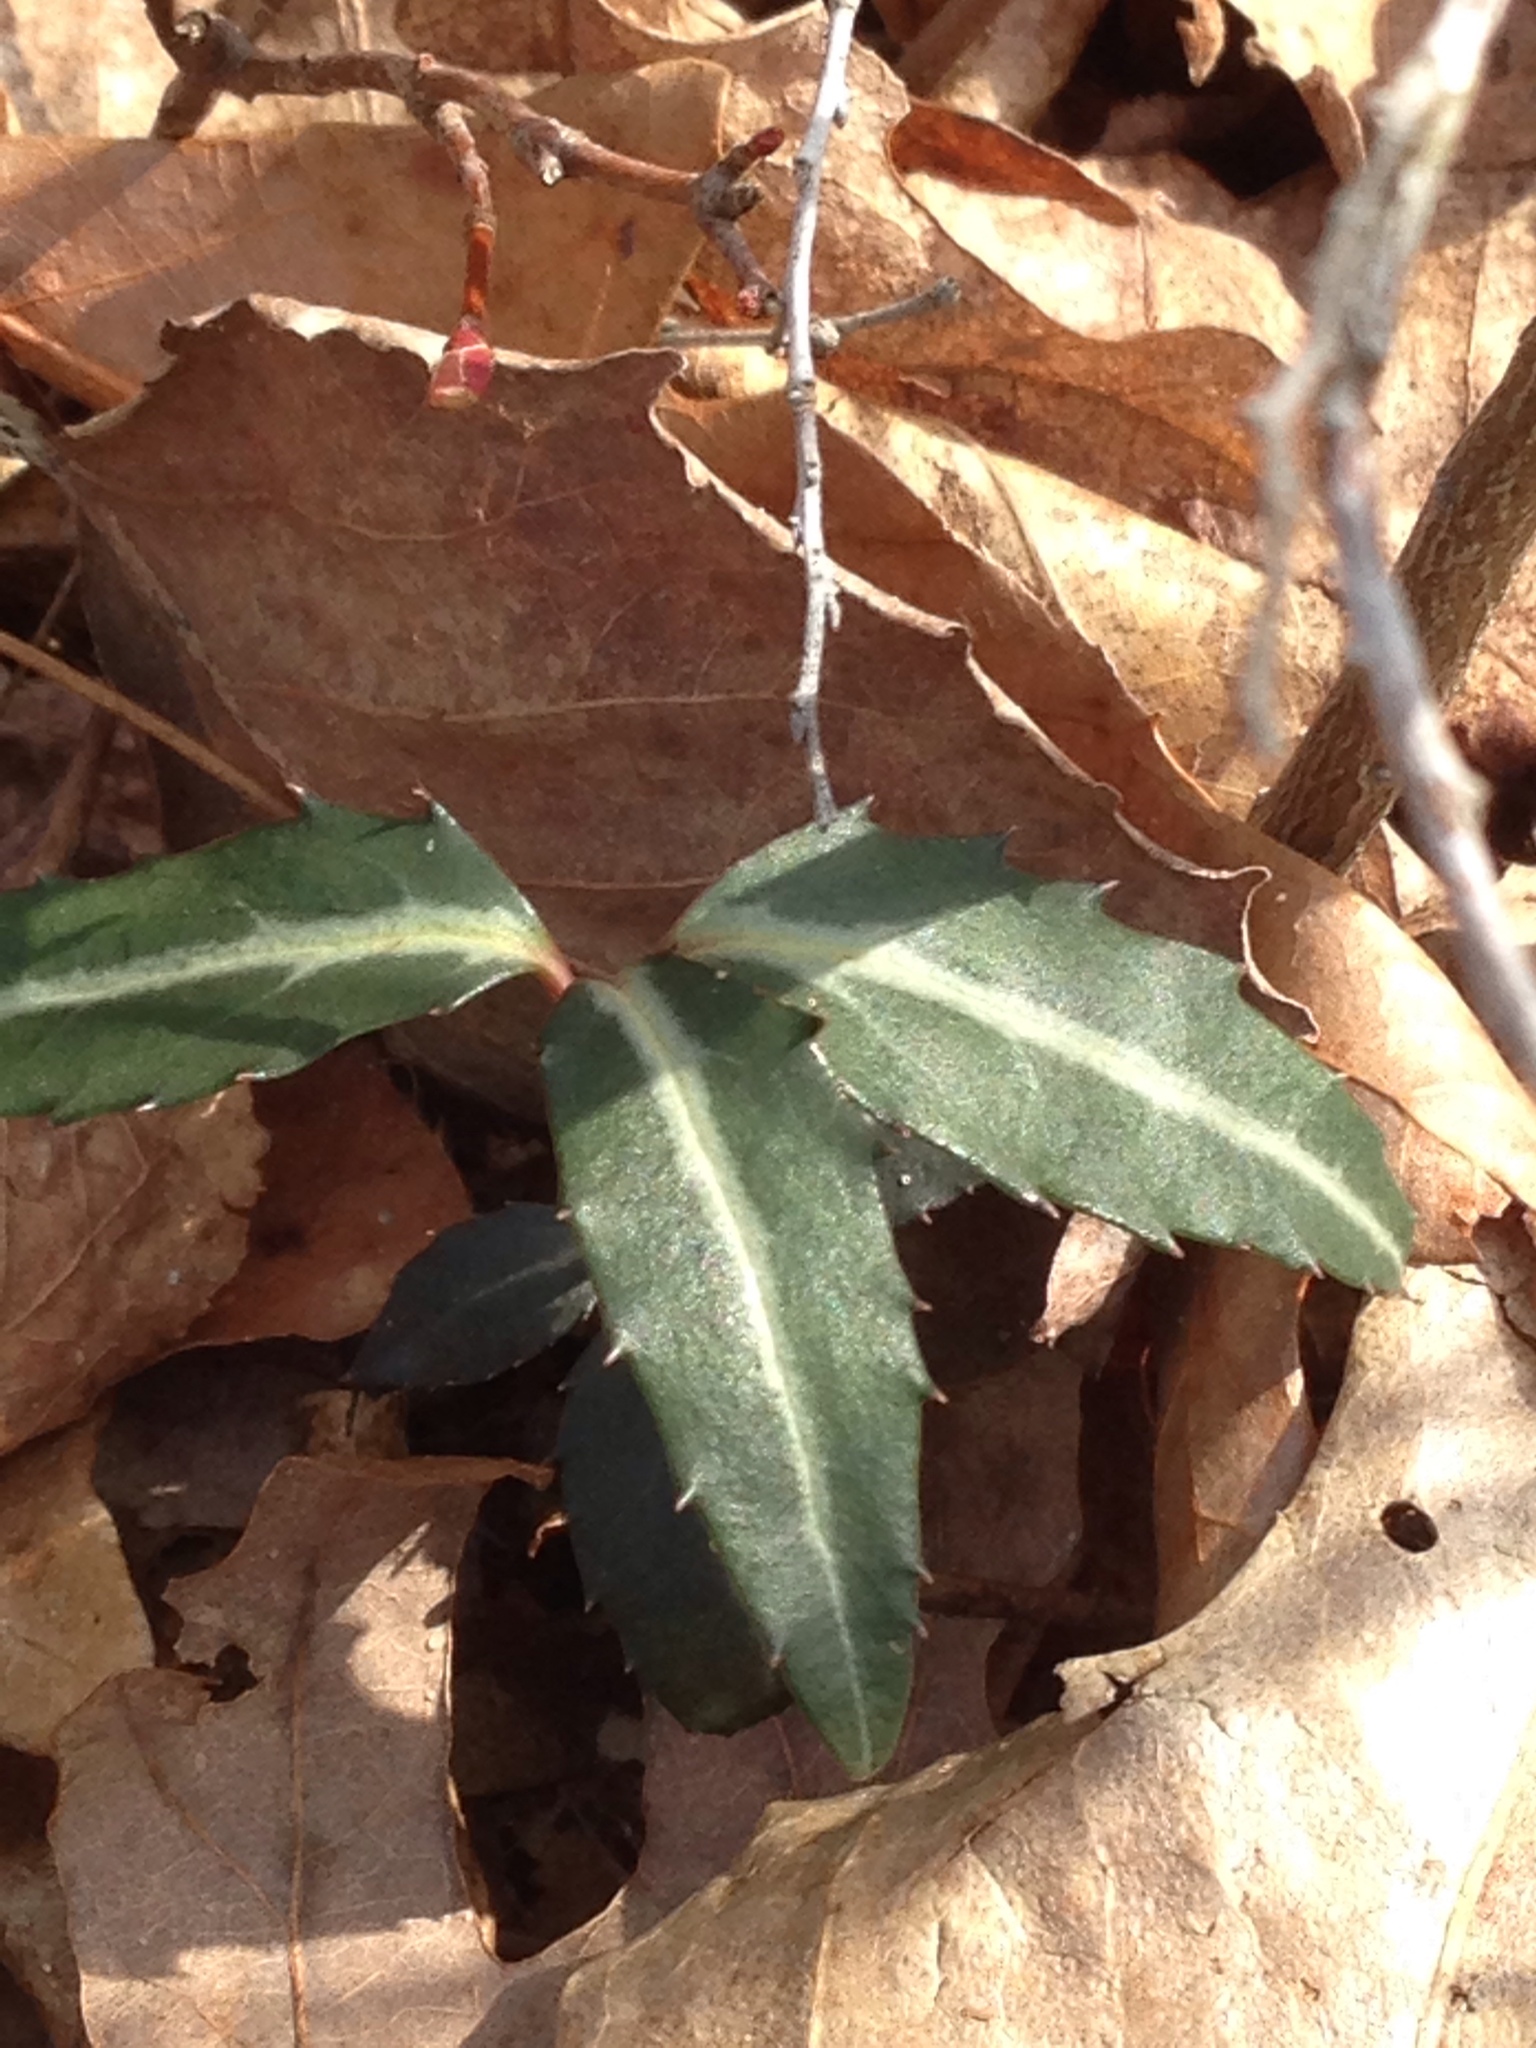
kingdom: Plantae
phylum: Tracheophyta
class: Magnoliopsida
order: Ericales
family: Ericaceae
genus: Chimaphila
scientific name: Chimaphila maculata
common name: Spotted pipsissewa
